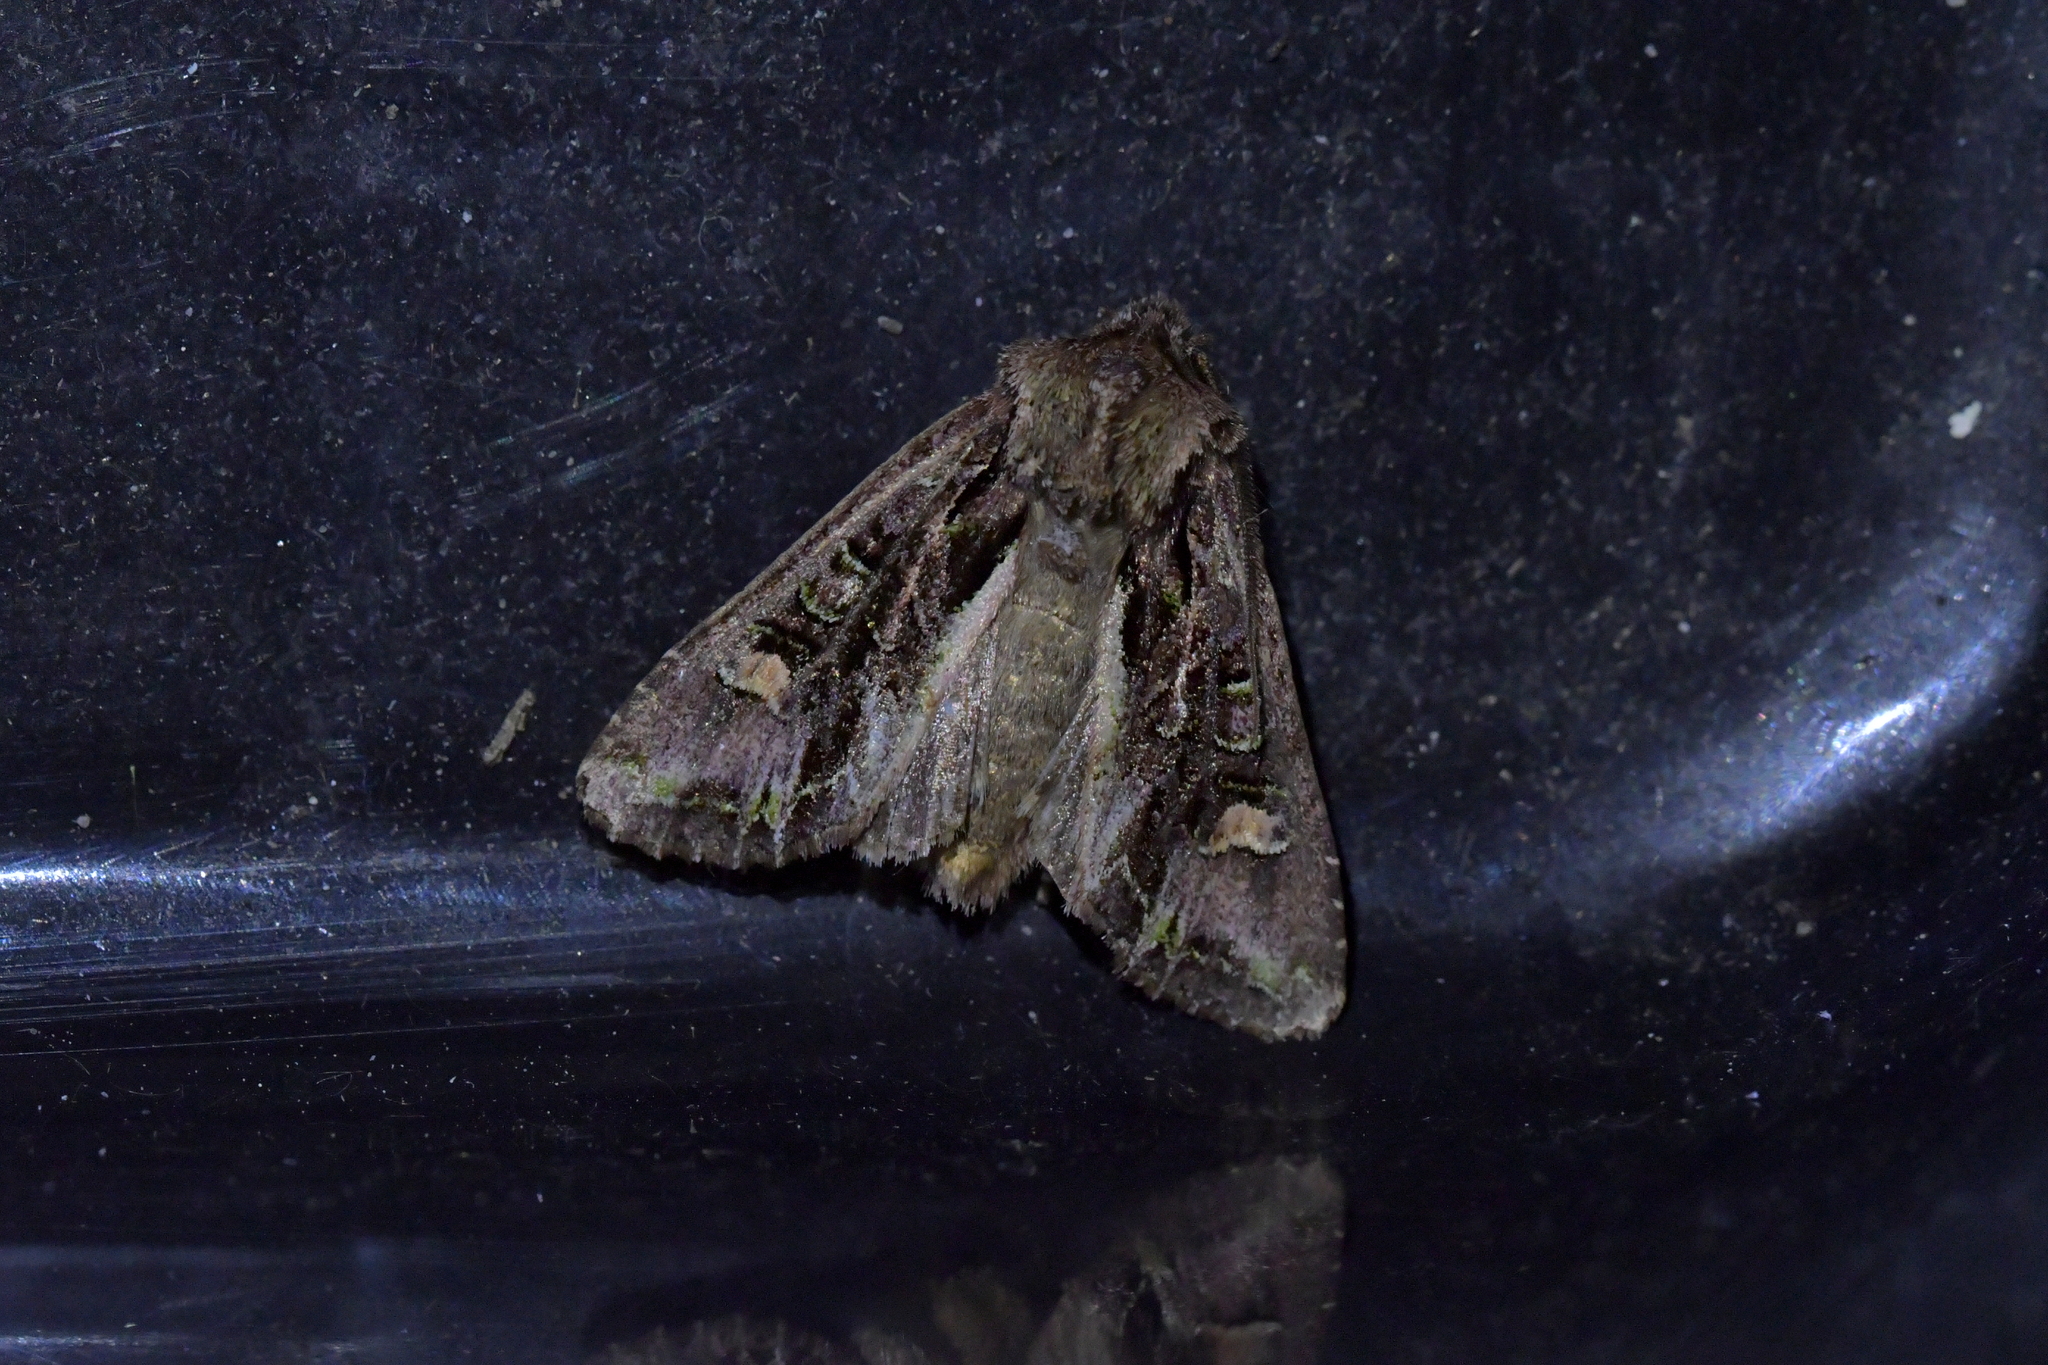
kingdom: Animalia
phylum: Arthropoda
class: Insecta
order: Lepidoptera
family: Noctuidae
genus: Ichneutica
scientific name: Ichneutica insignis
